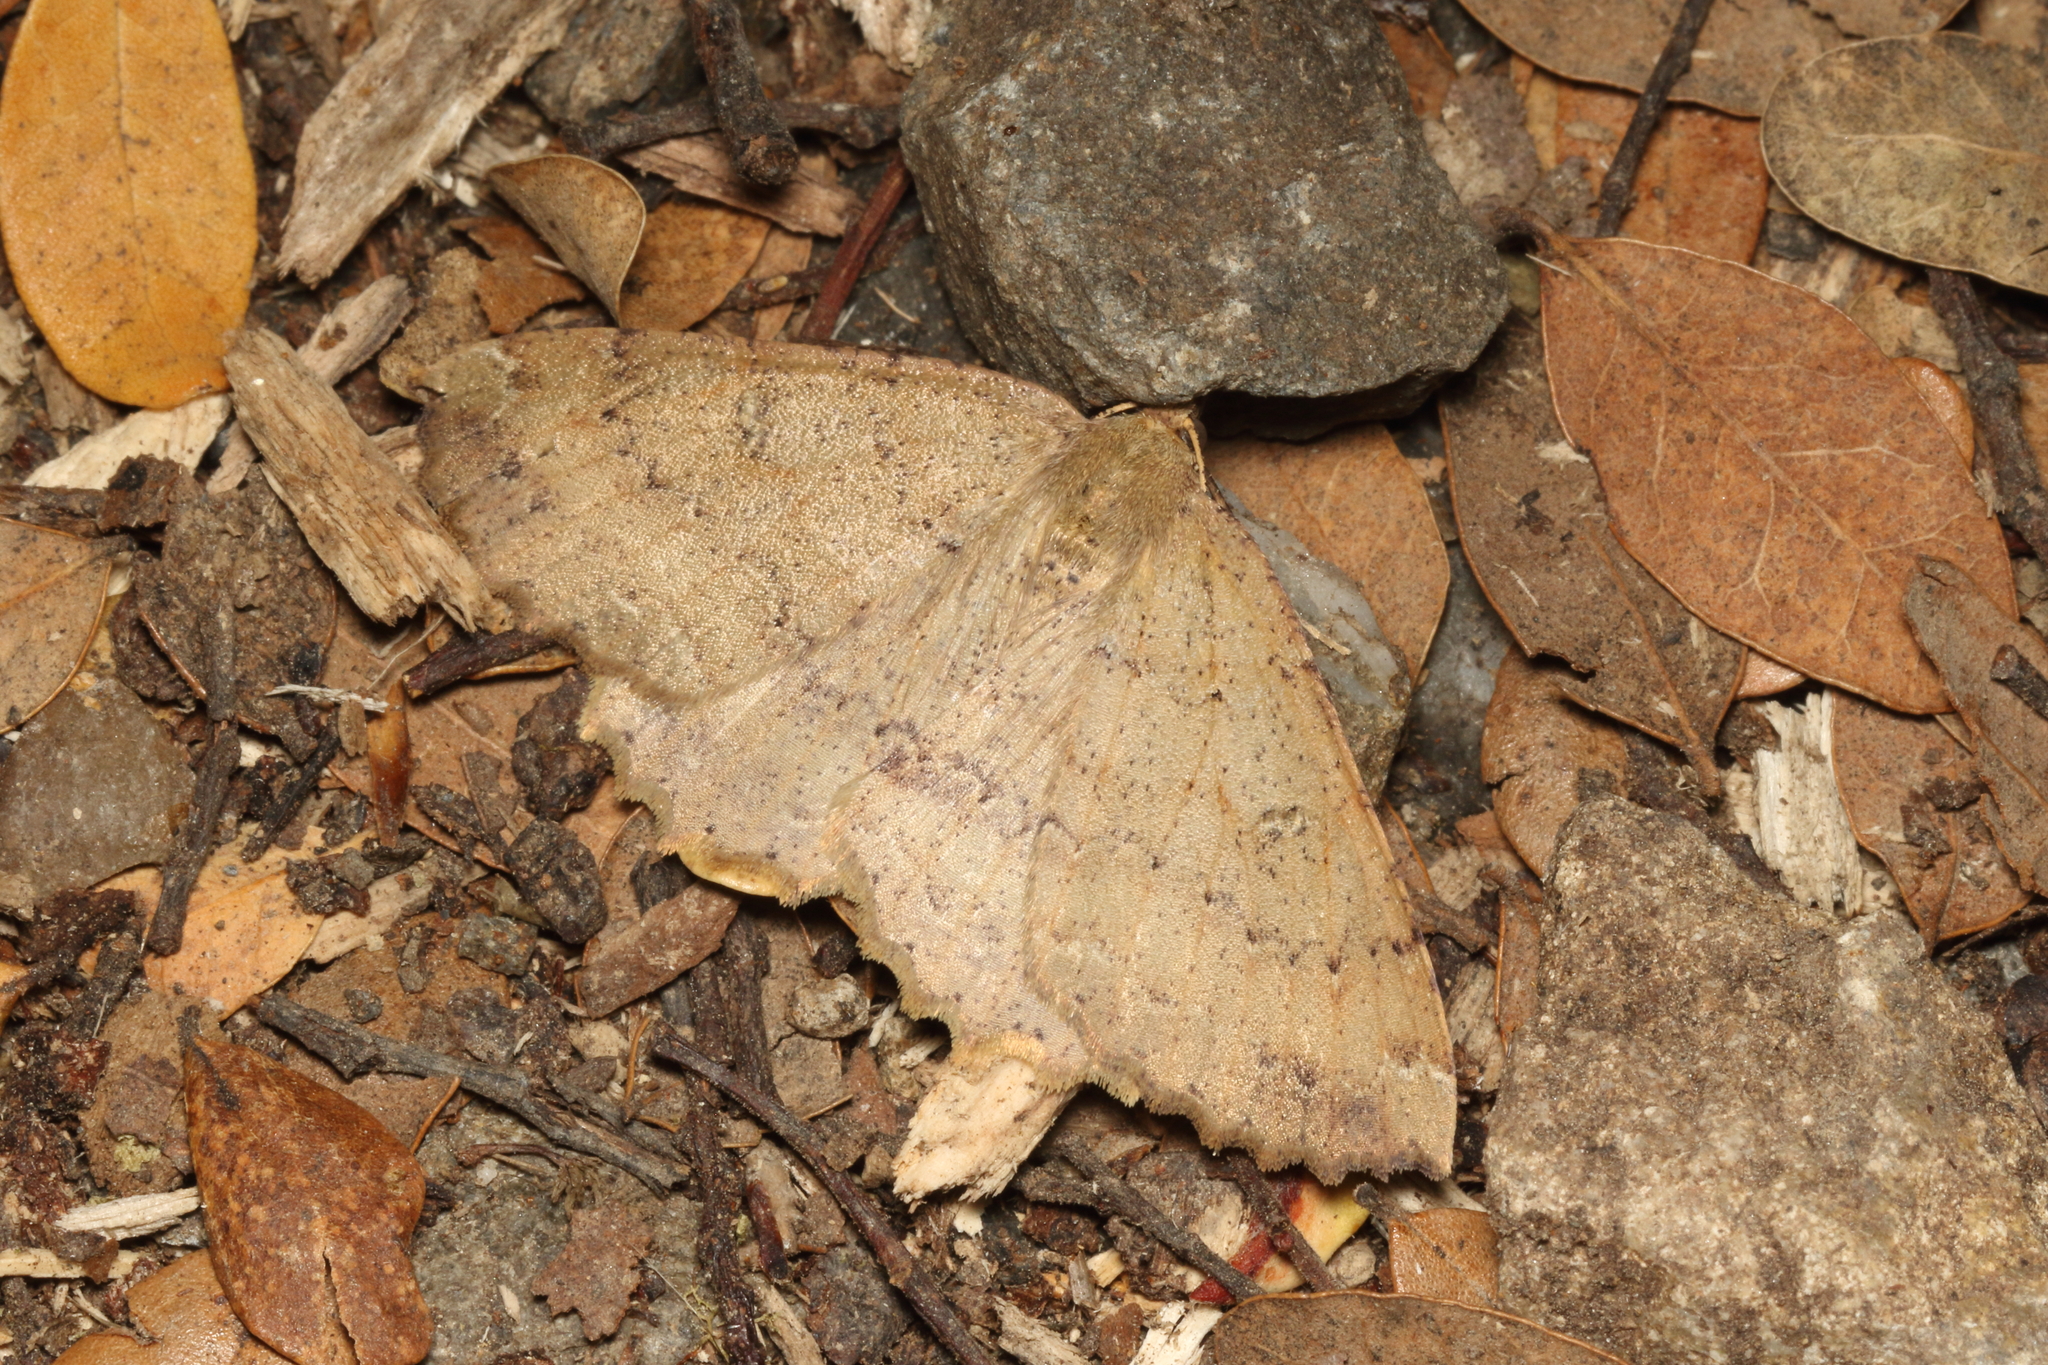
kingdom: Animalia
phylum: Arthropoda
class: Insecta
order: Lepidoptera
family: Geometridae
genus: Cleora
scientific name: Cleora scriptaria
